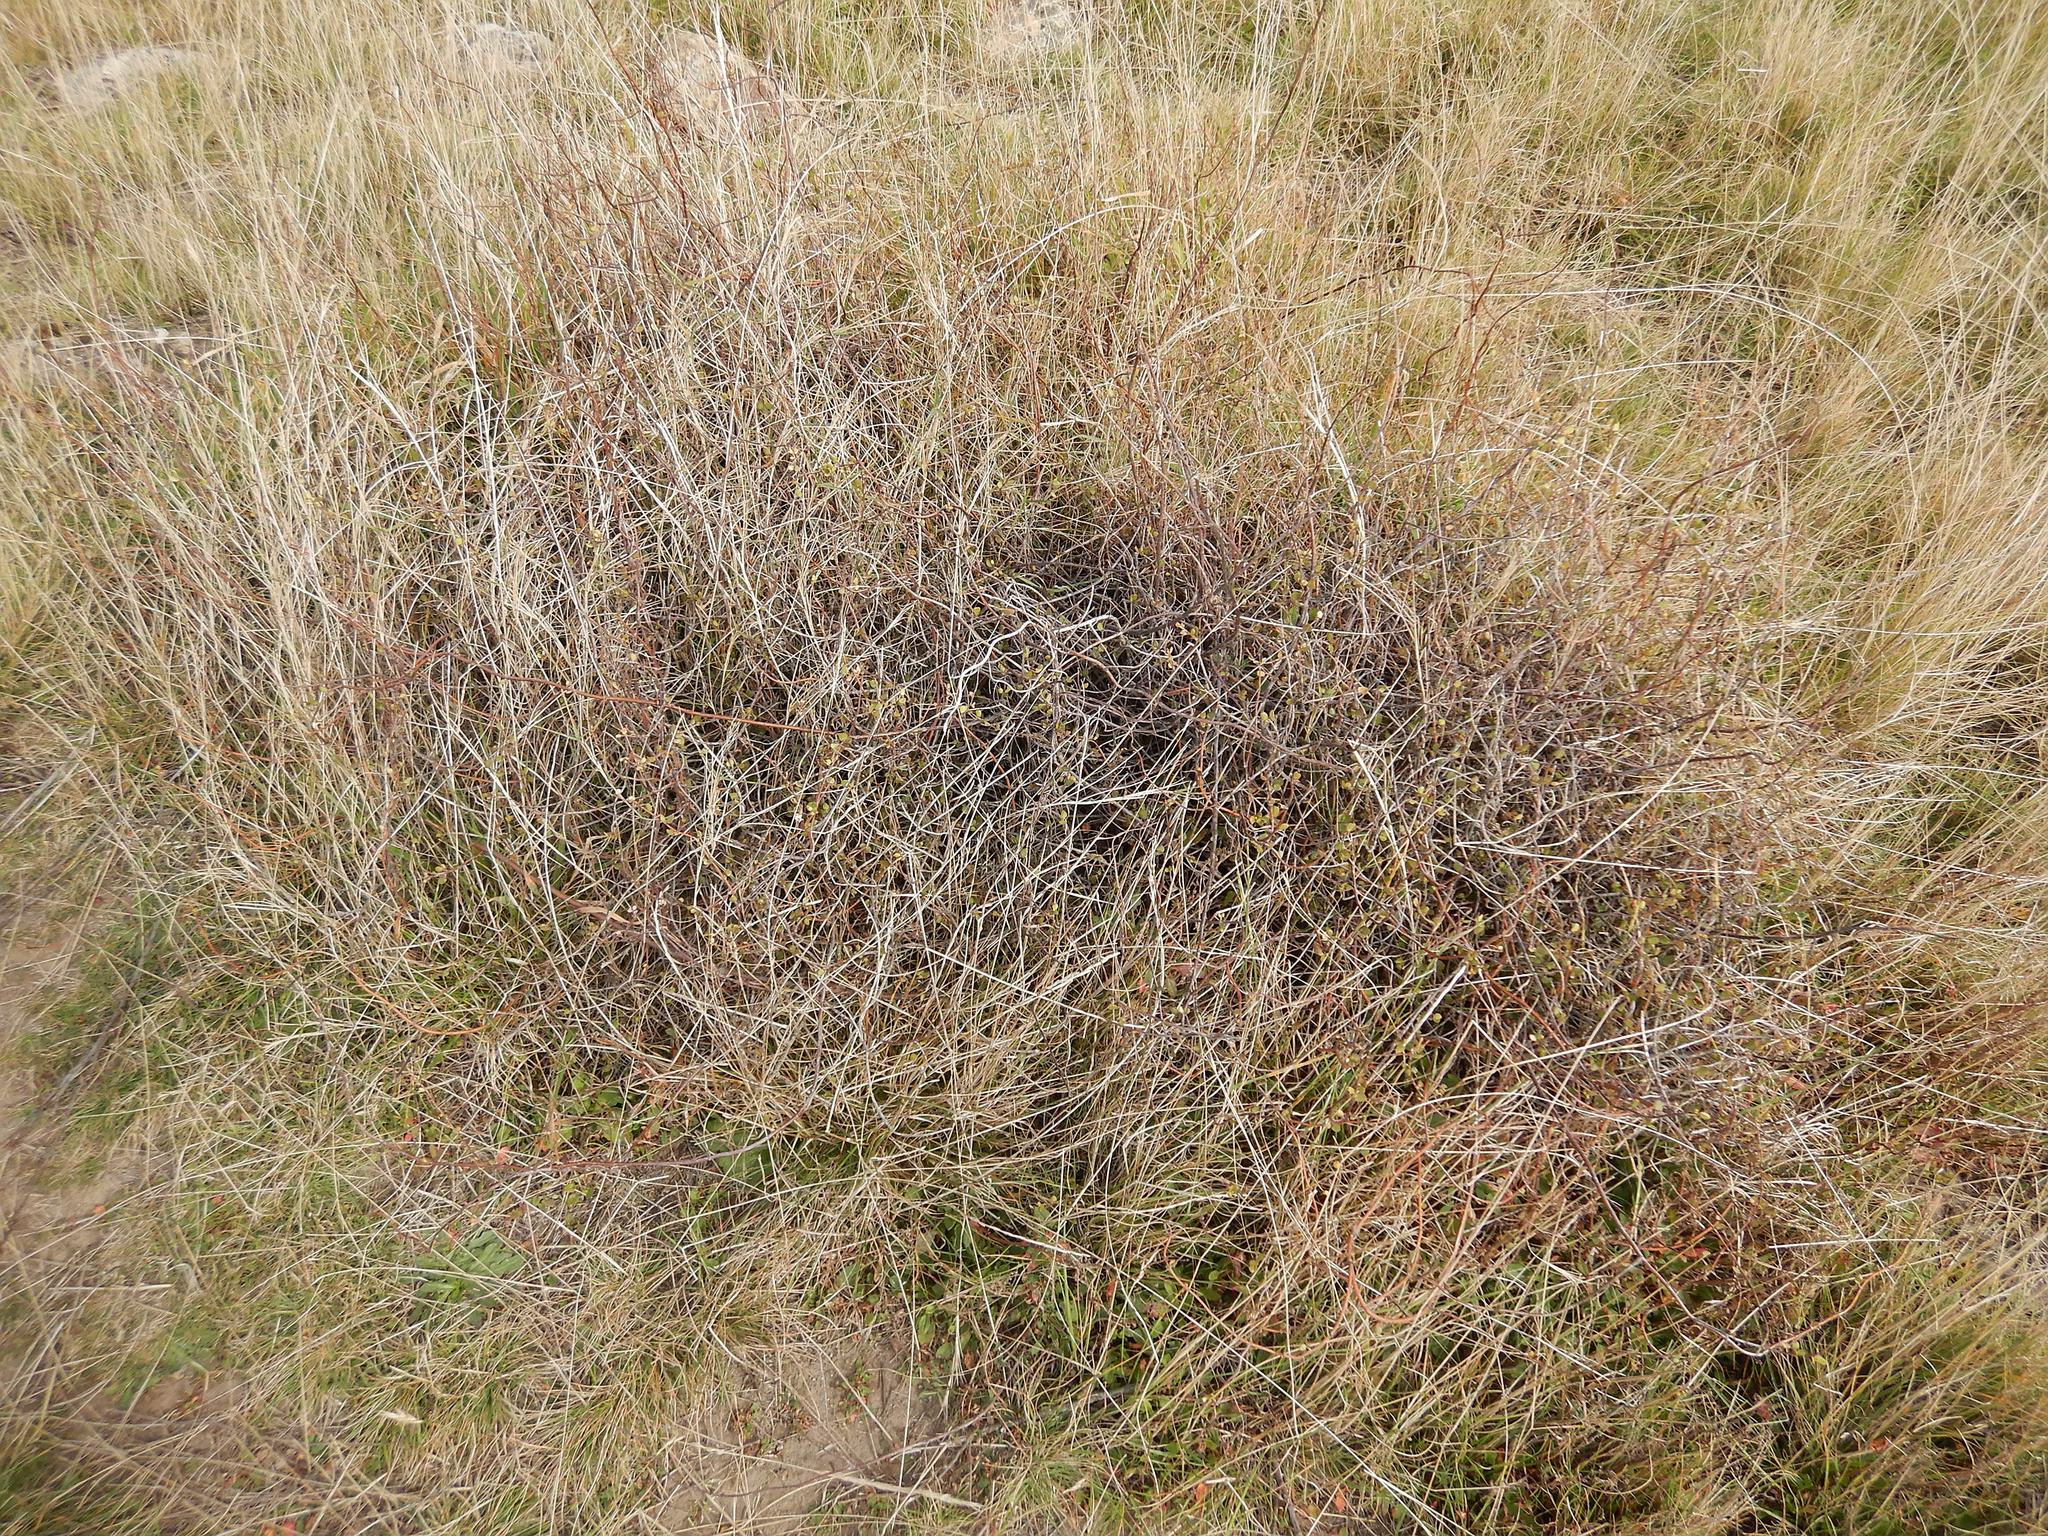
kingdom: Plantae
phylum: Tracheophyta
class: Magnoliopsida
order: Caryophyllales
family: Polygonaceae
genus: Muehlenbeckia
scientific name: Muehlenbeckia complexa
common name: Wireplant
